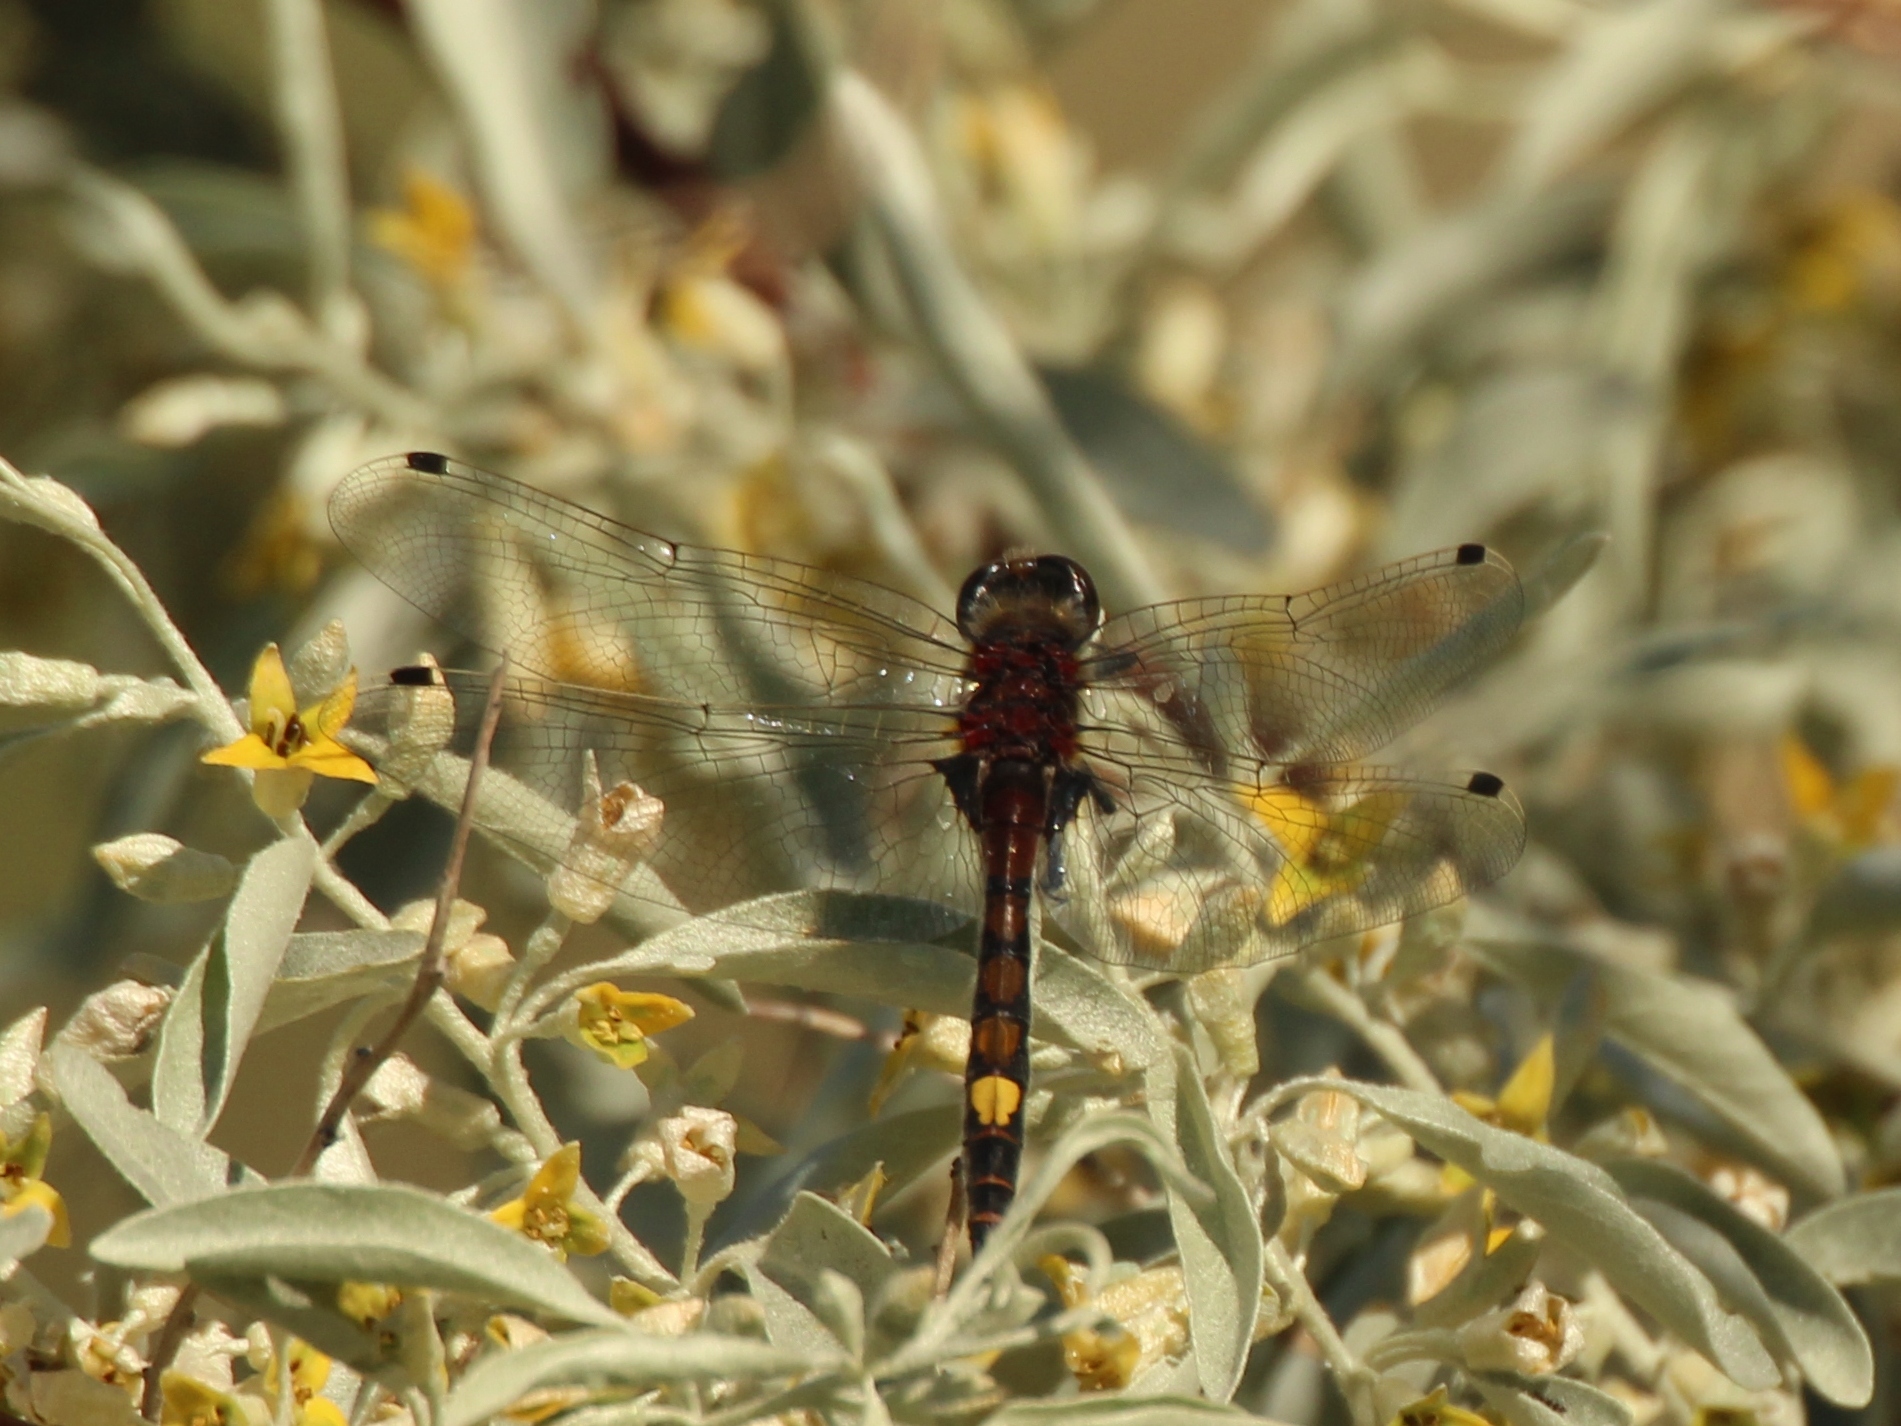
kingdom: Animalia
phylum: Arthropoda
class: Insecta
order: Odonata
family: Libellulidae
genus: Leucorrhinia
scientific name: Leucorrhinia pectoralis
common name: Yellow-spotted whiteface
